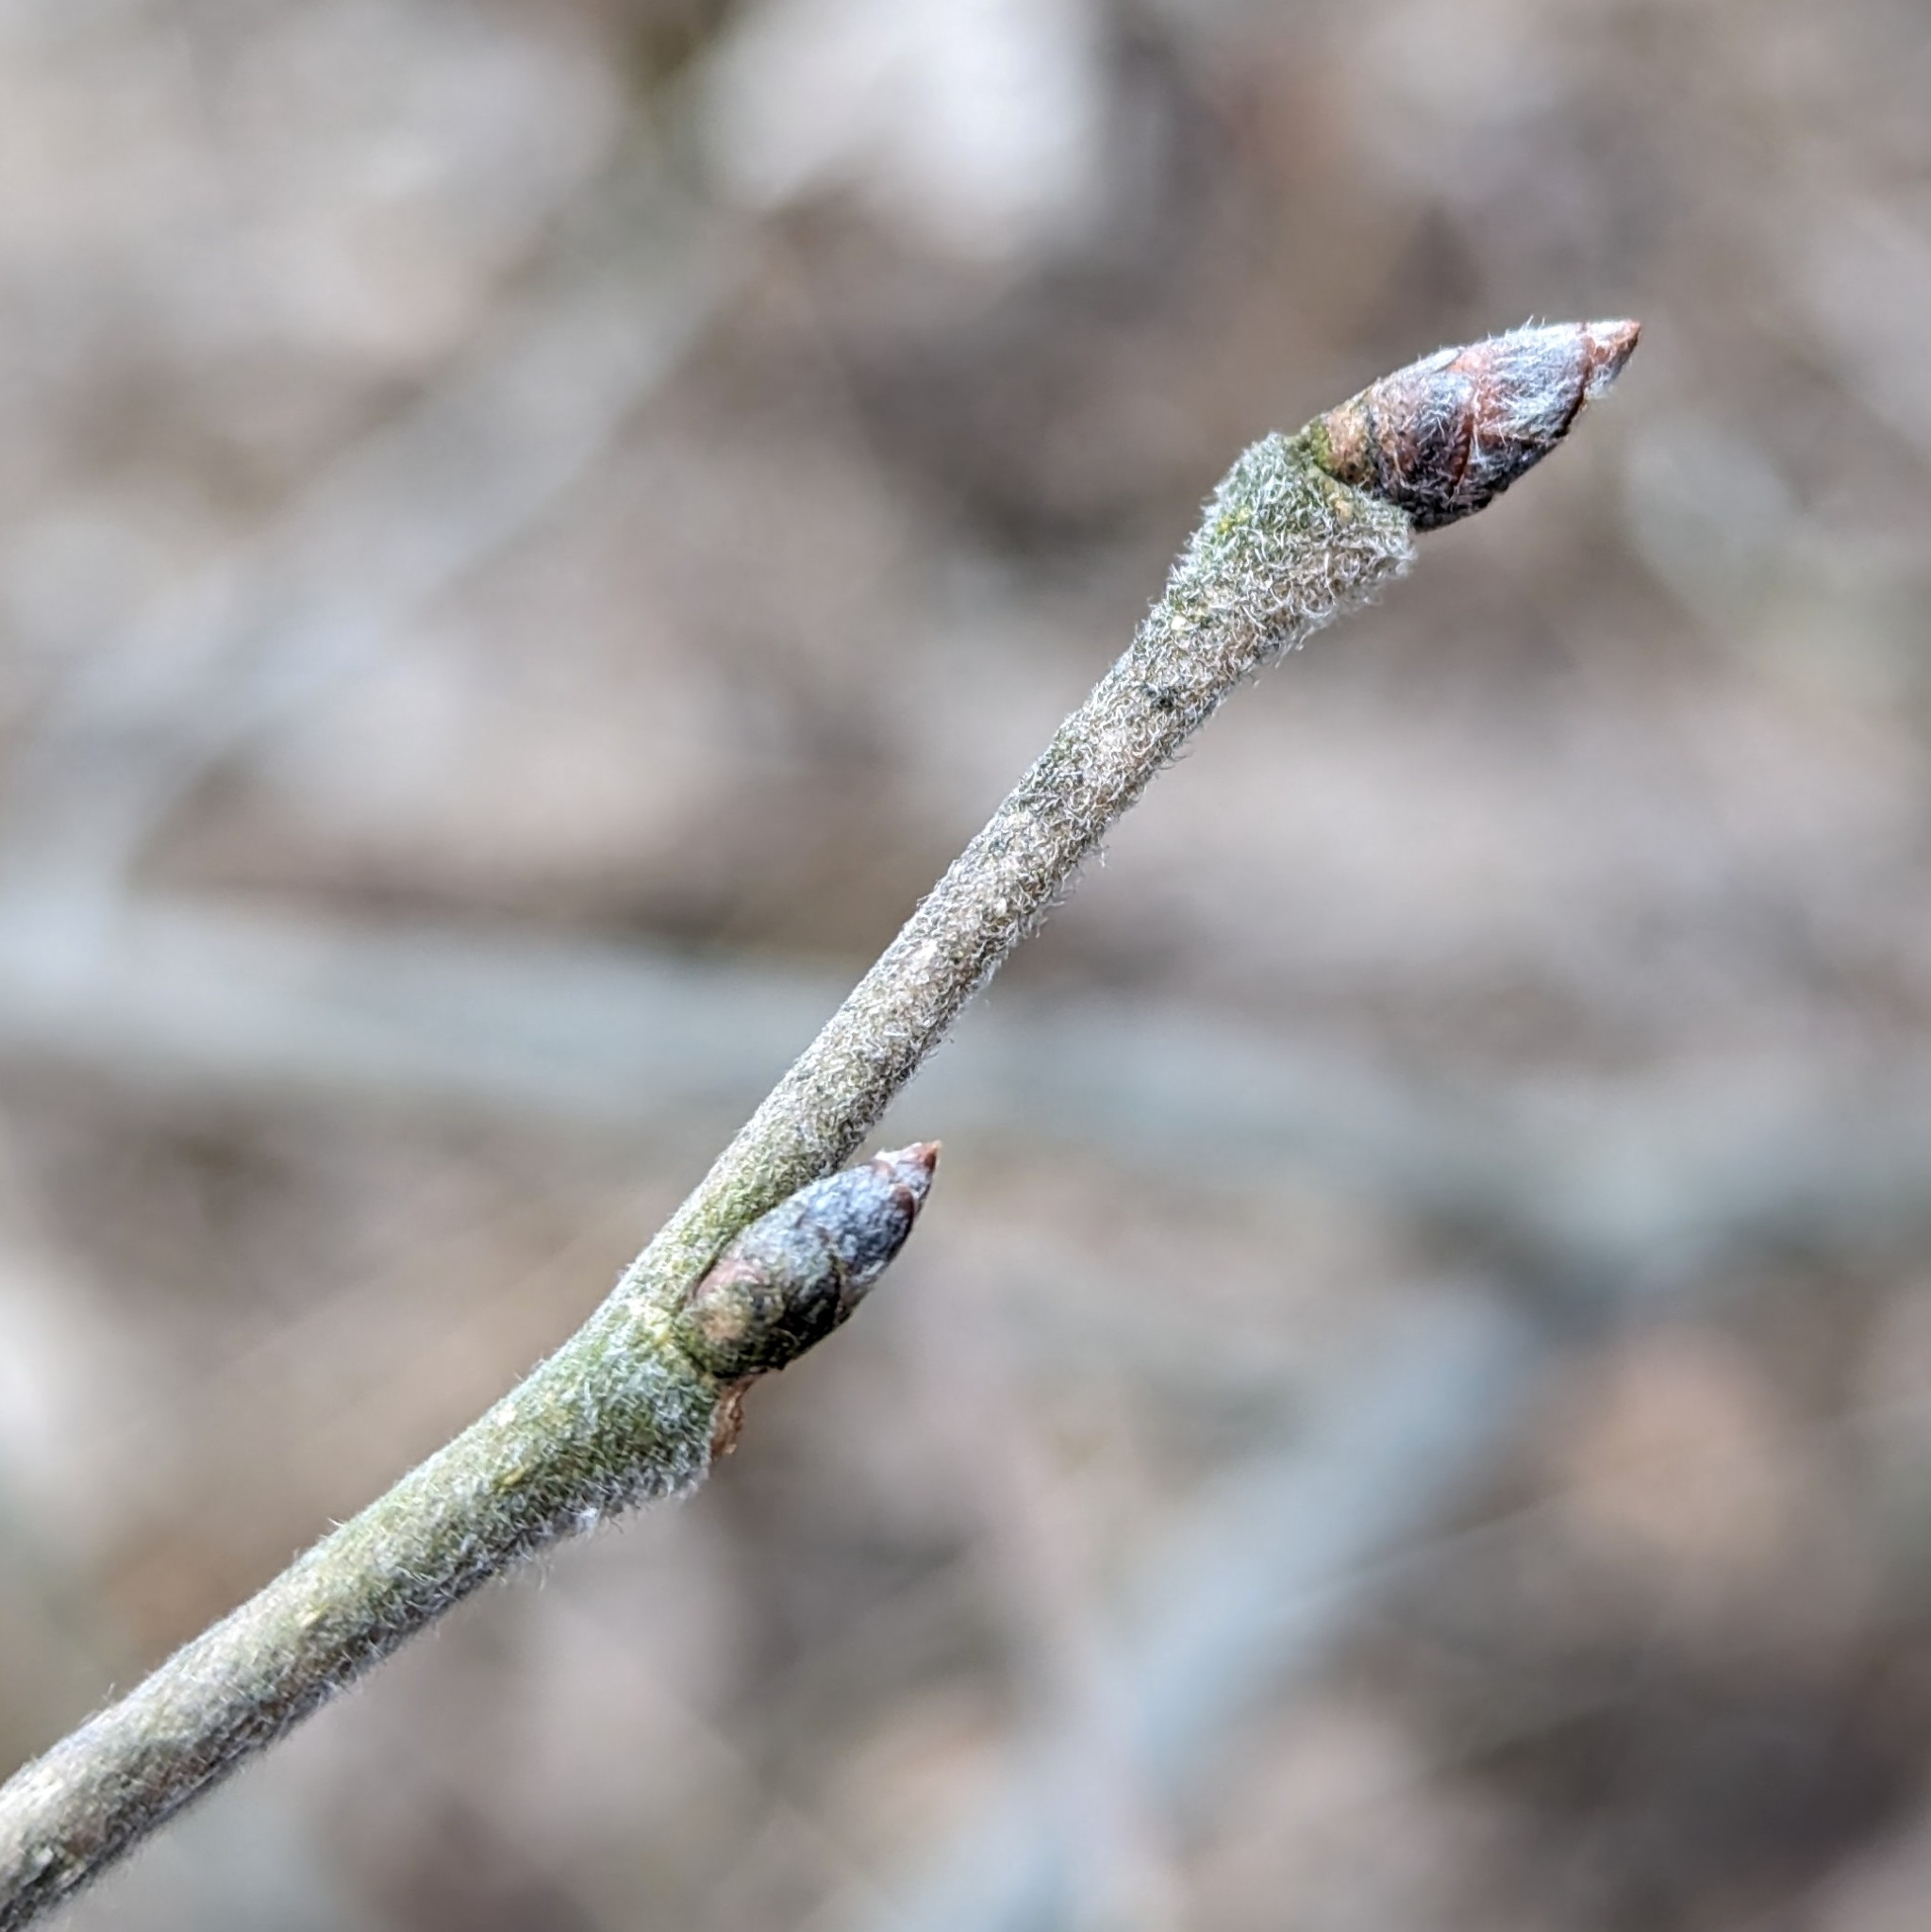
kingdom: Plantae
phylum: Tracheophyta
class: Magnoliopsida
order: Rosales
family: Ulmaceae
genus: Ulmus
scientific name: Ulmus americana
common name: American elm
